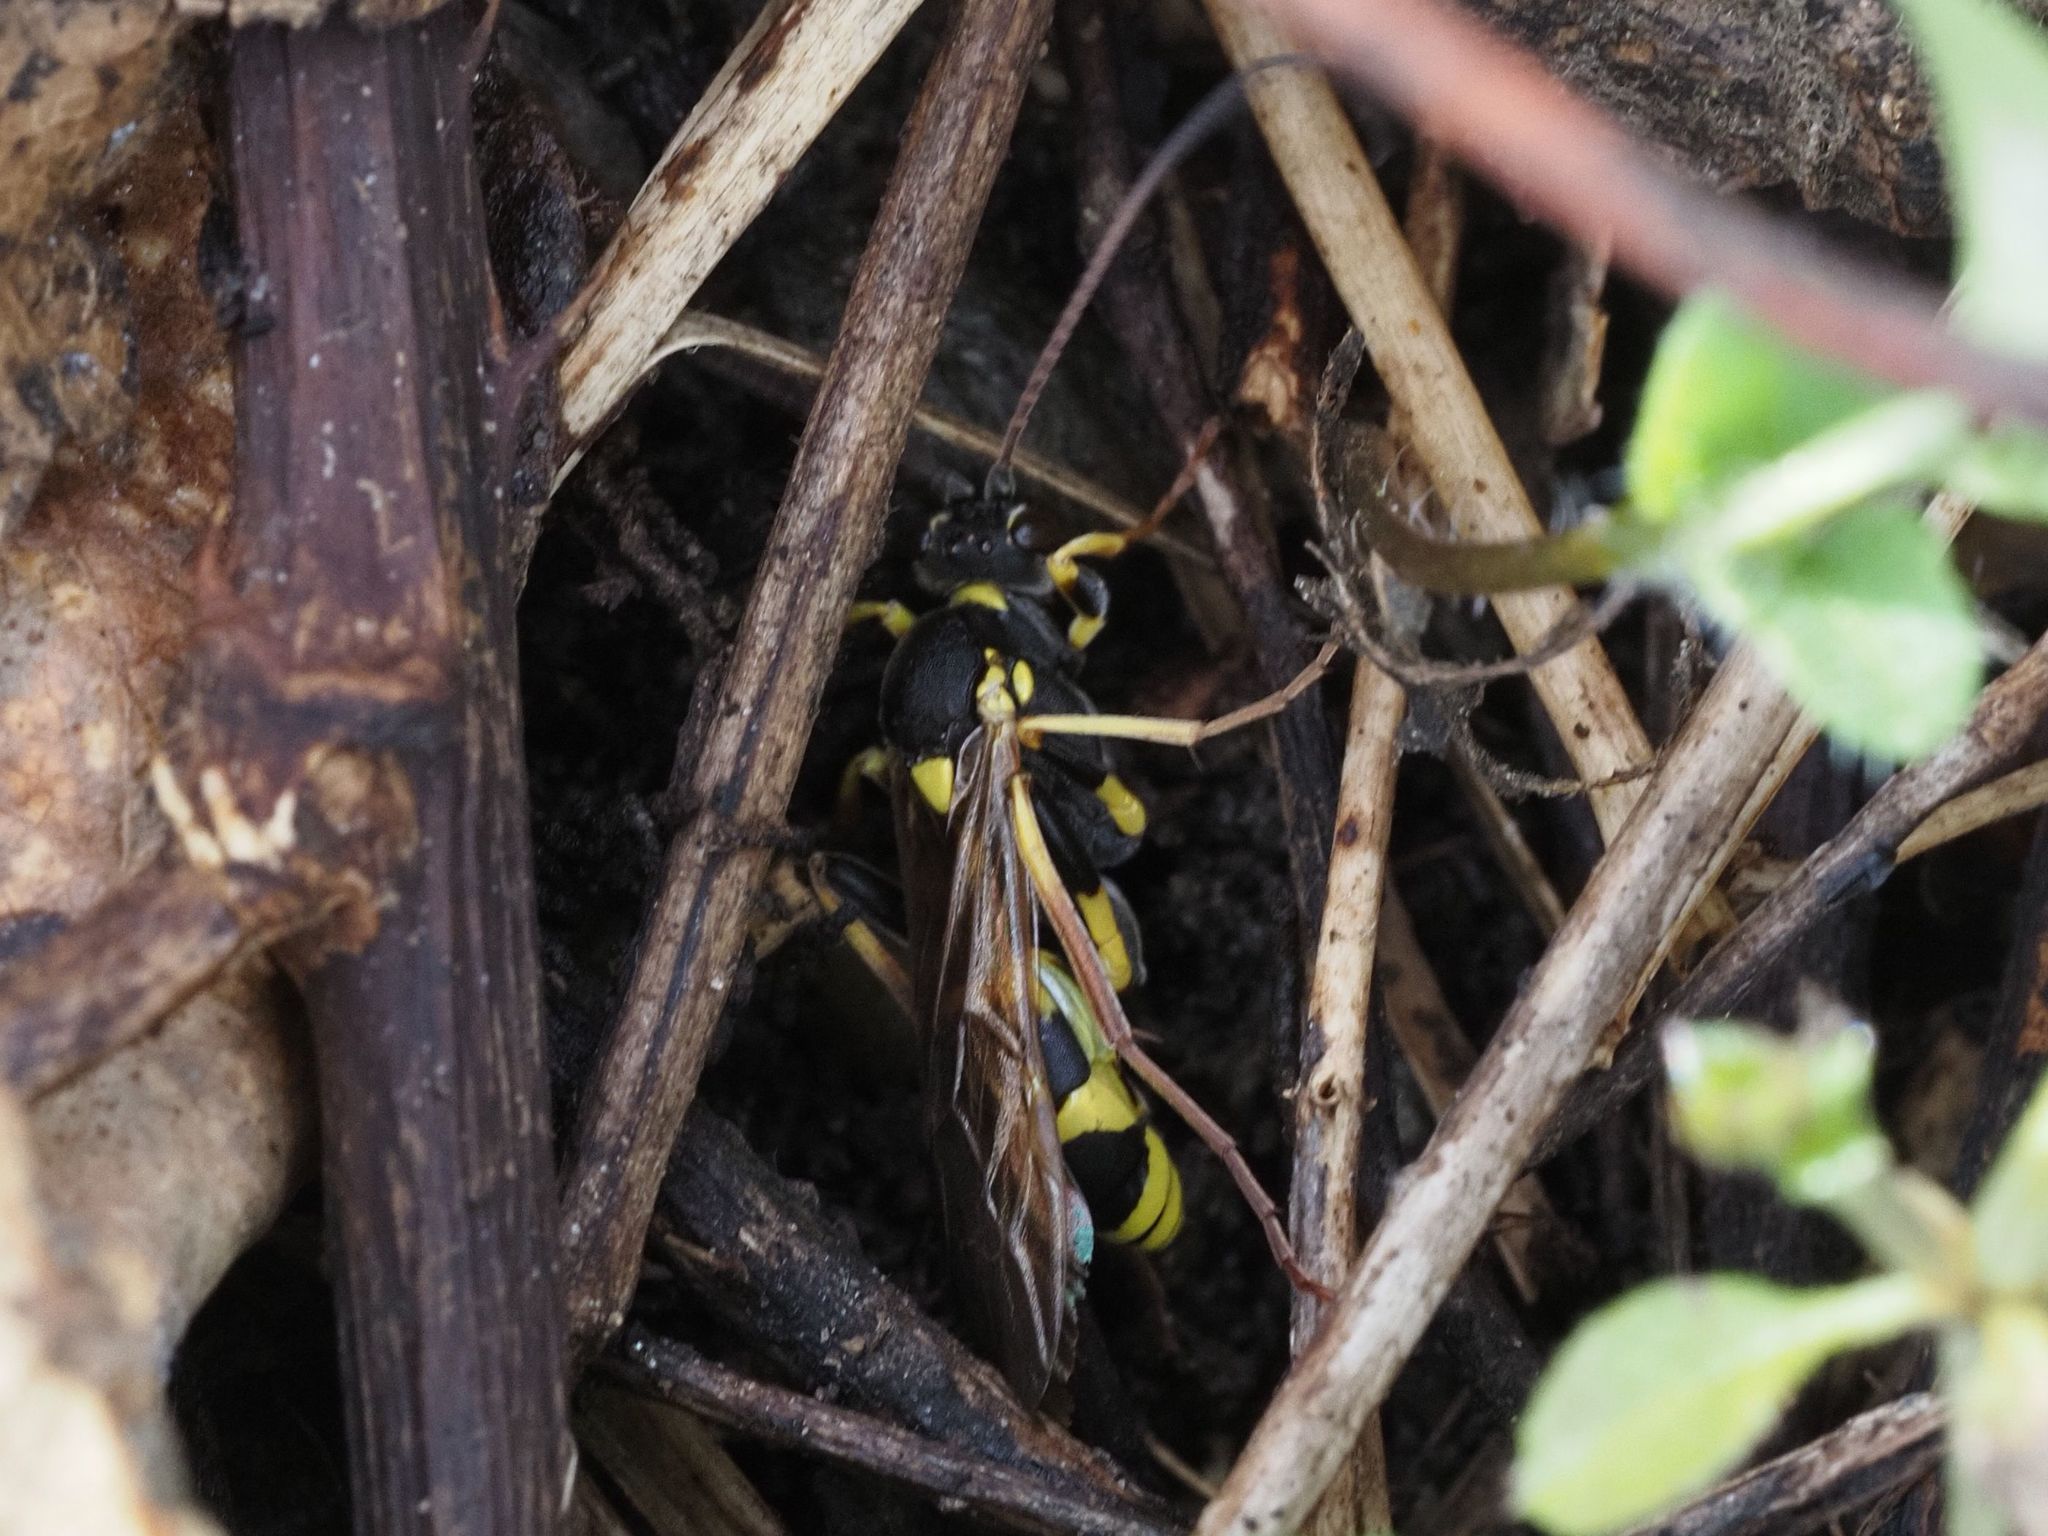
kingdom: Animalia
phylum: Arthropoda
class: Insecta
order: Hymenoptera
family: Ichneumonidae
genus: Amblyteles
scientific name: Amblyteles armatorius
